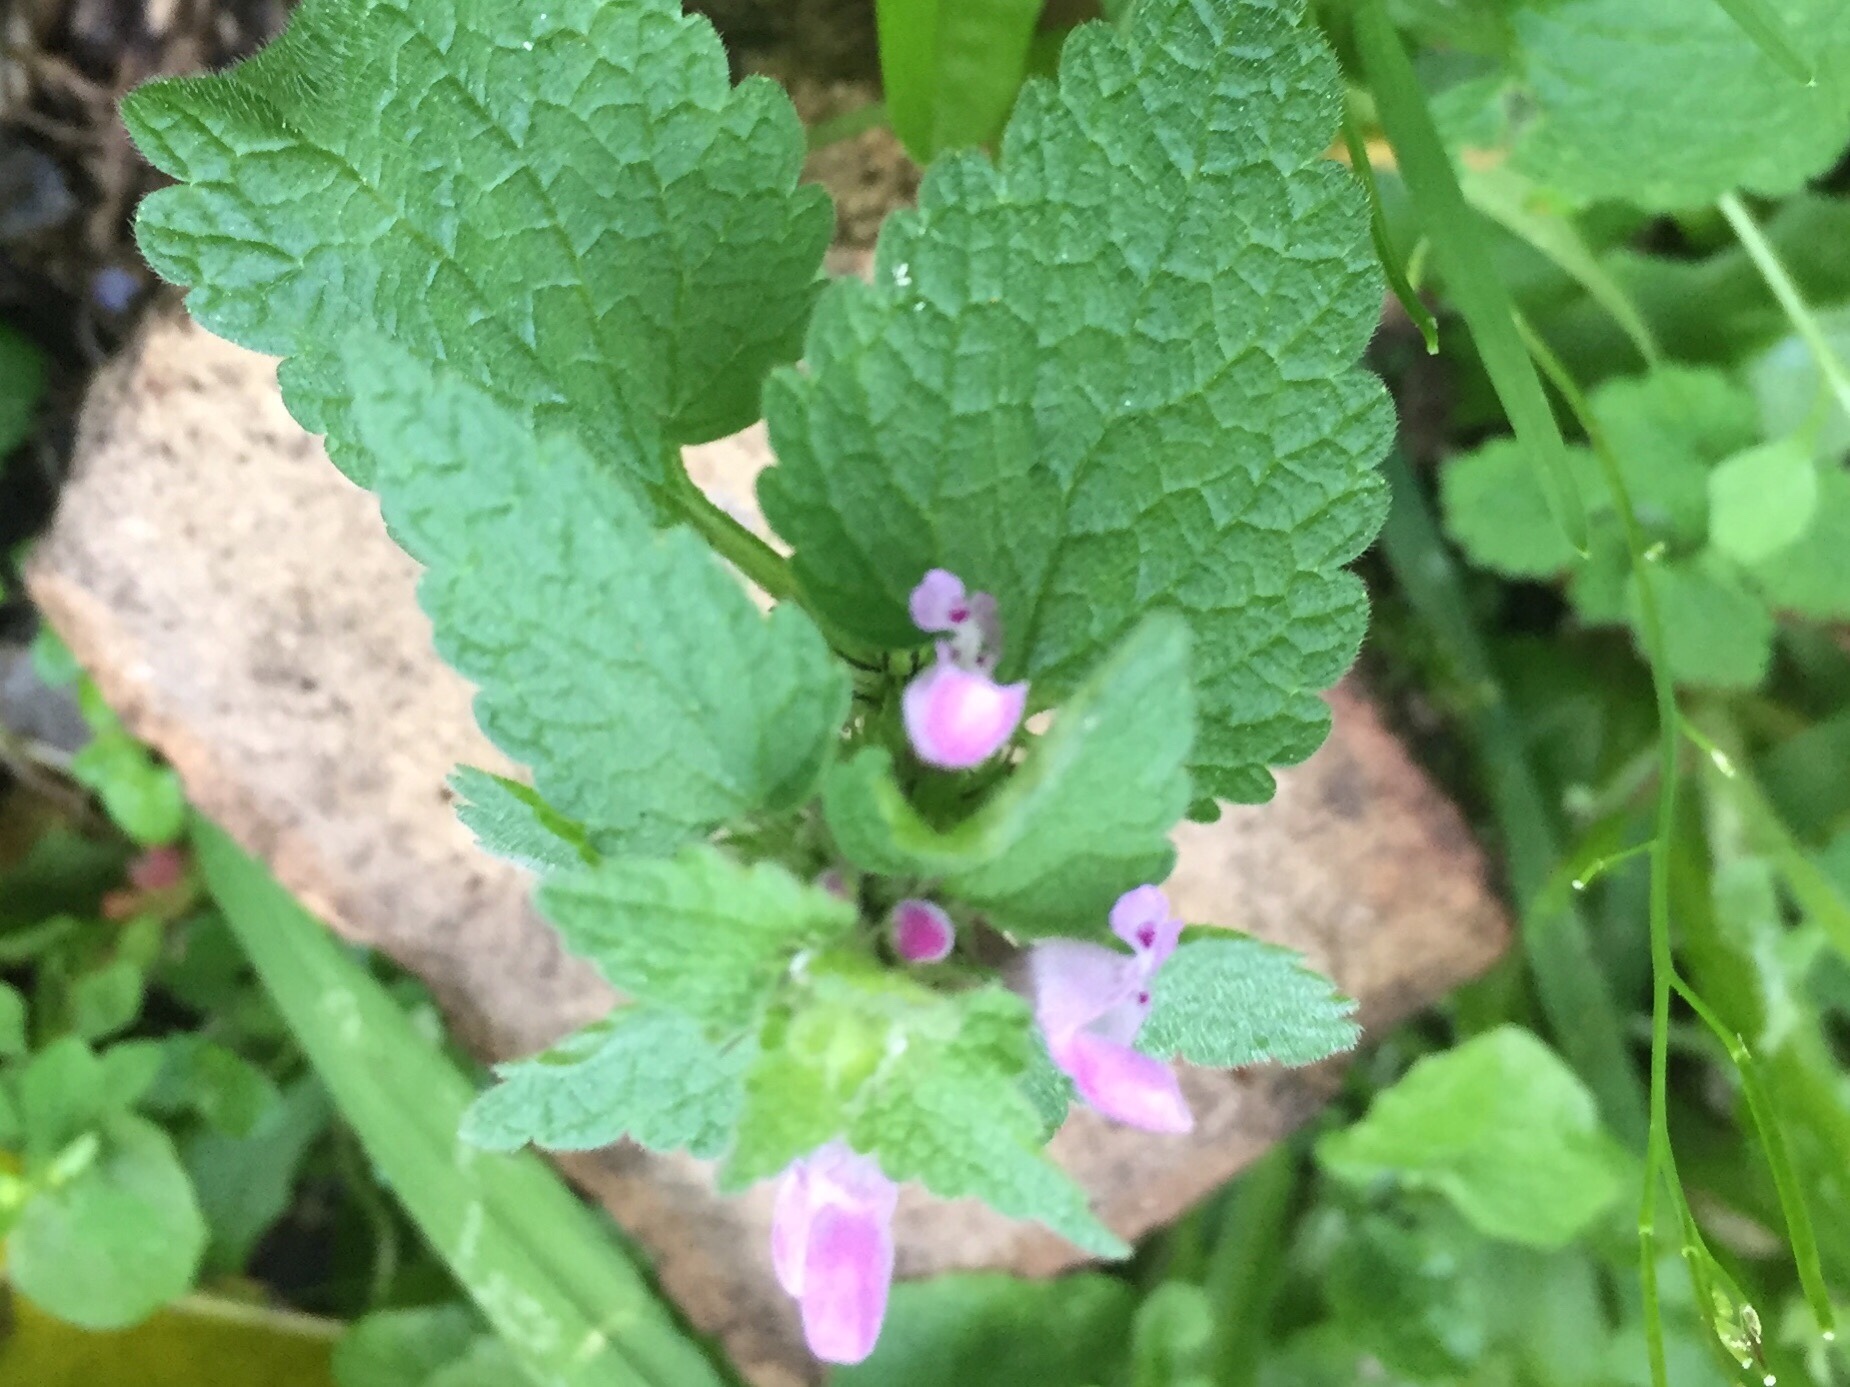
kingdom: Plantae
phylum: Tracheophyta
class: Magnoliopsida
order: Lamiales
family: Lamiaceae
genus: Lamium
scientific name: Lamium purpureum
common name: Red dead-nettle
